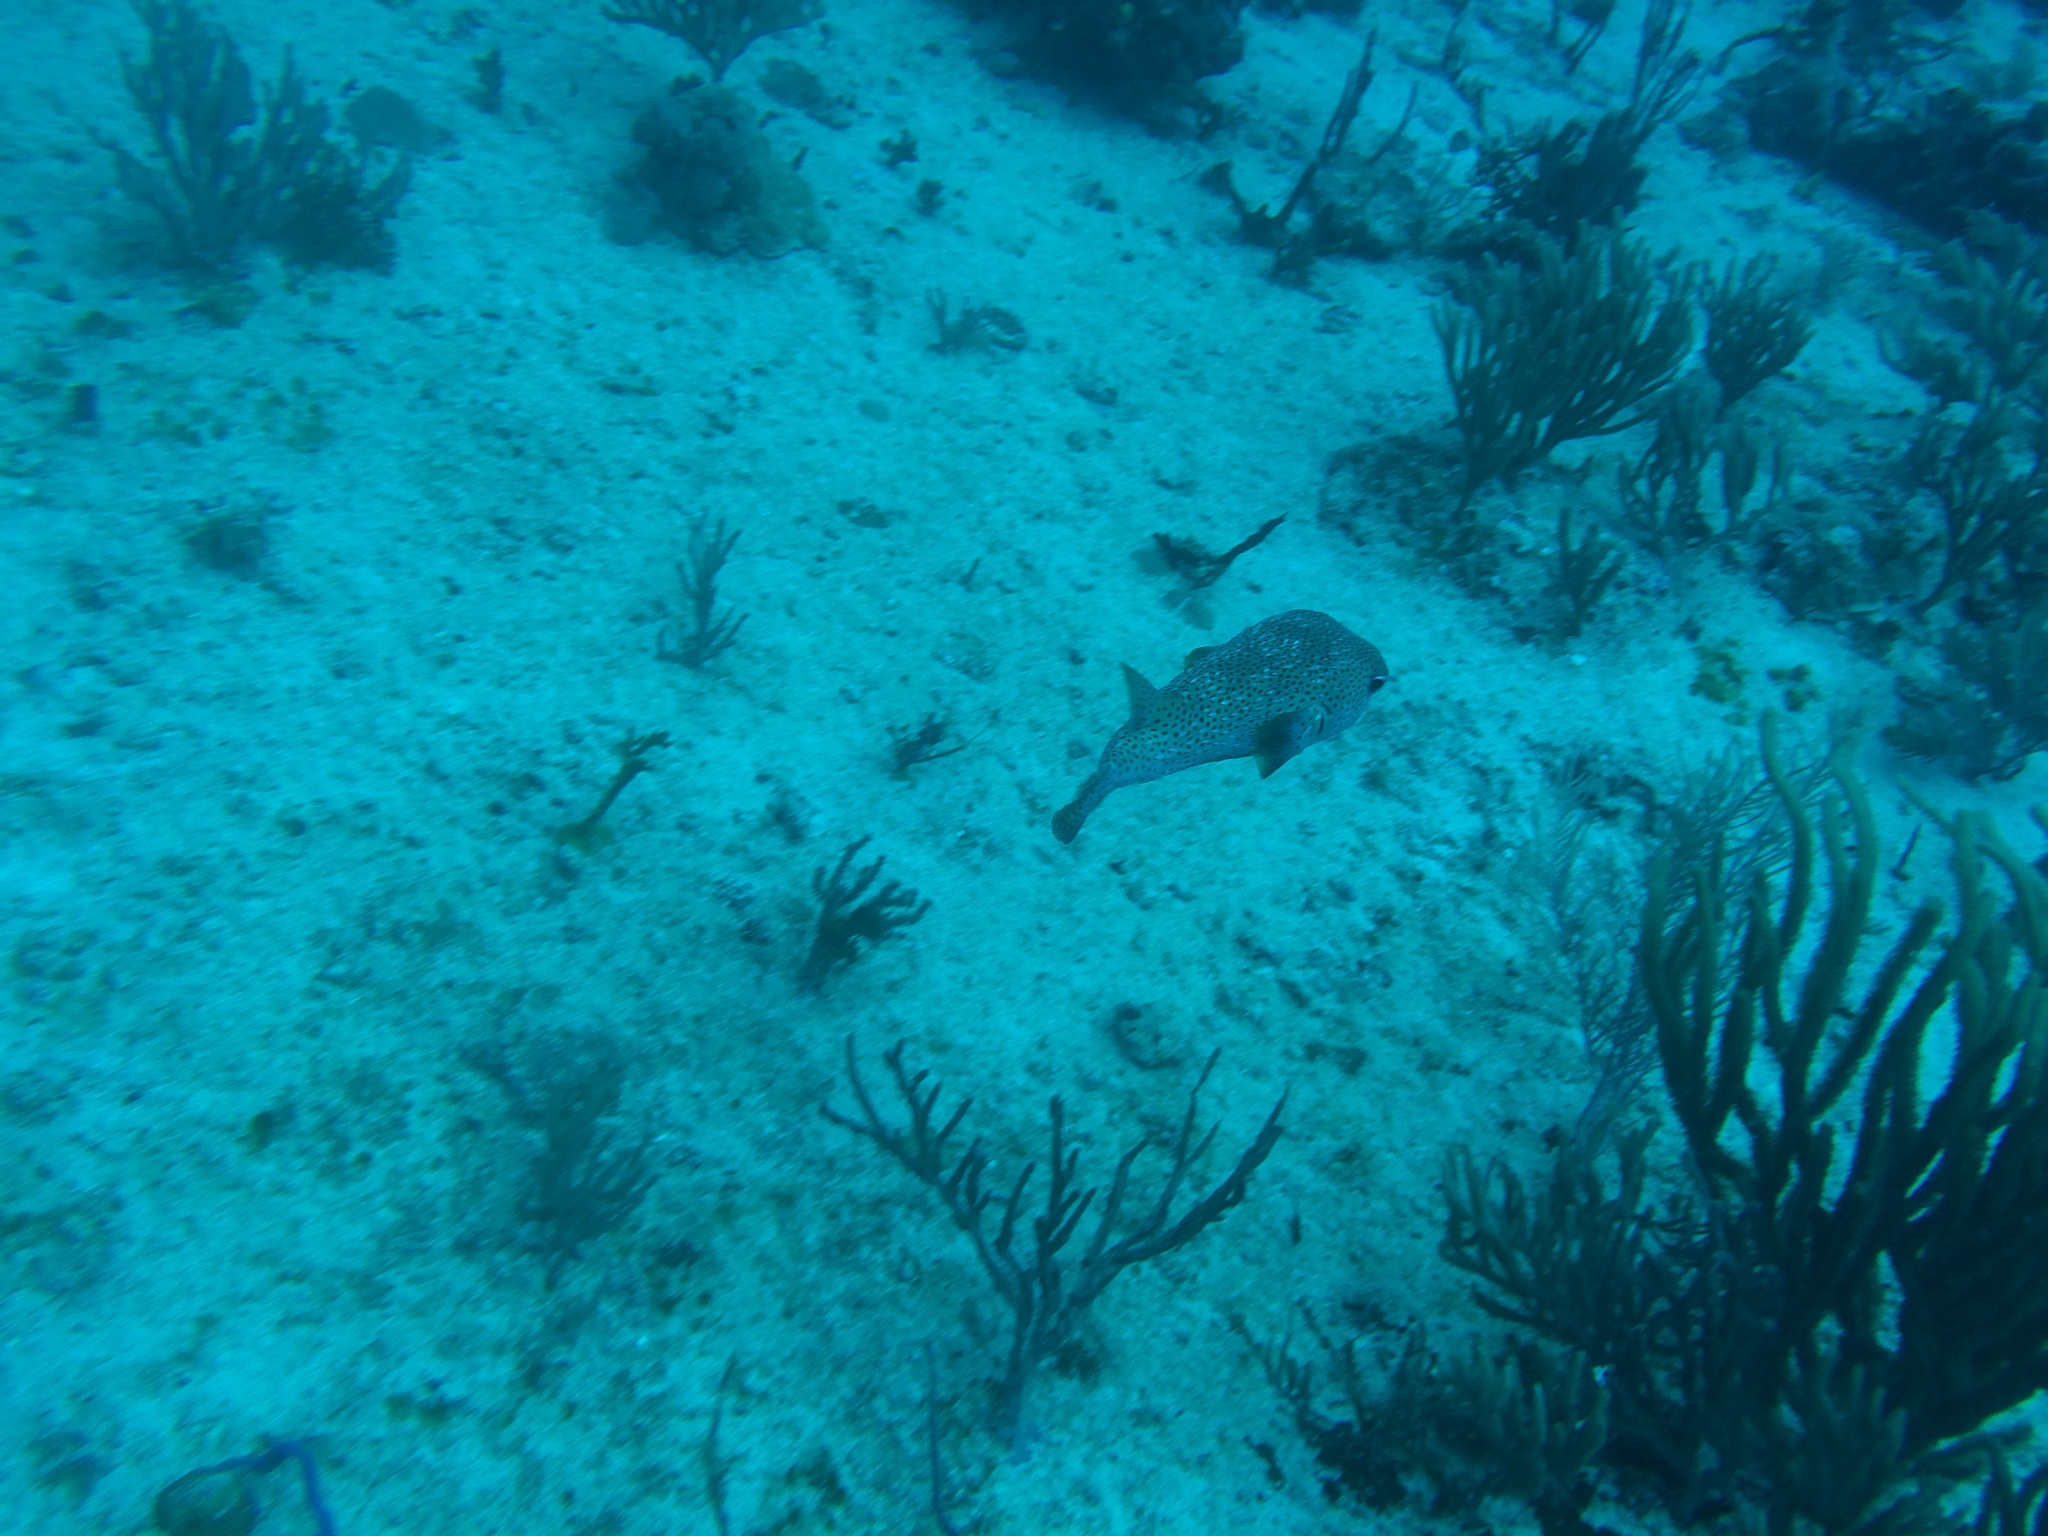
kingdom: Animalia
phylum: Chordata
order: Tetraodontiformes
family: Diodontidae
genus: Diodon
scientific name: Diodon hystrix
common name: Giant porcupinefish
